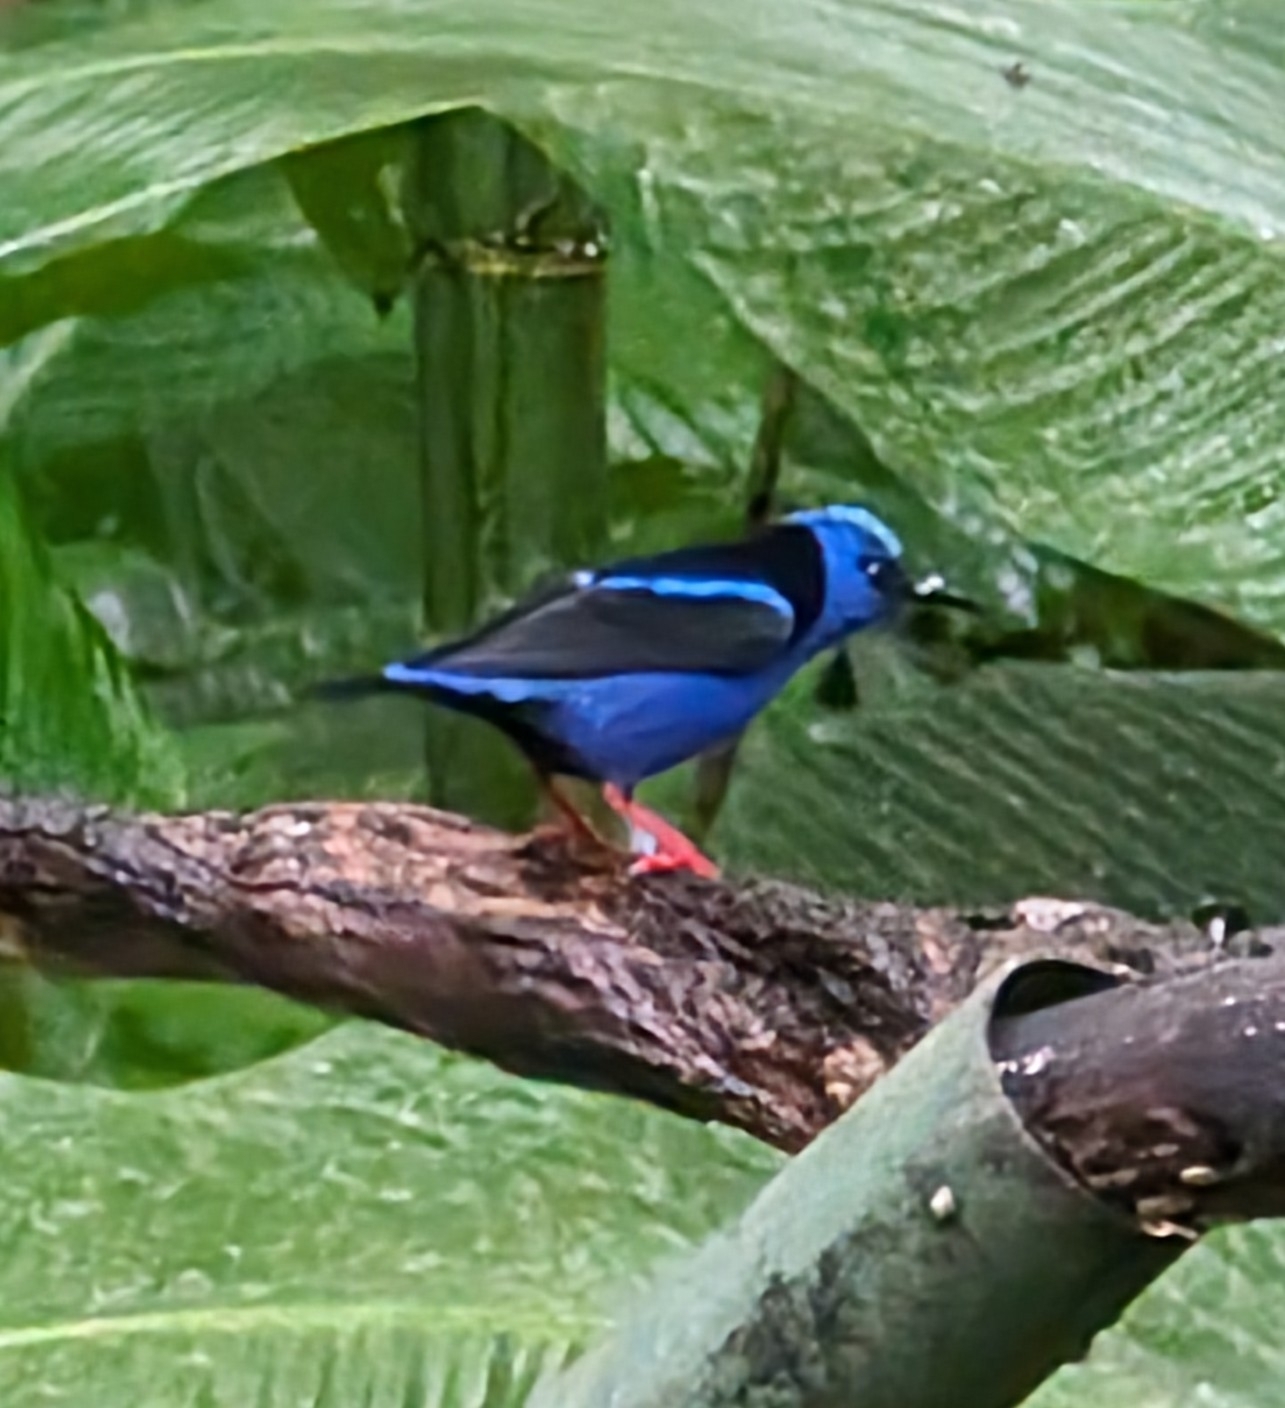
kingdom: Animalia
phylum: Chordata
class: Aves
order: Passeriformes
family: Thraupidae
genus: Cyanerpes
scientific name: Cyanerpes cyaneus
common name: Red-legged honeycreeper
